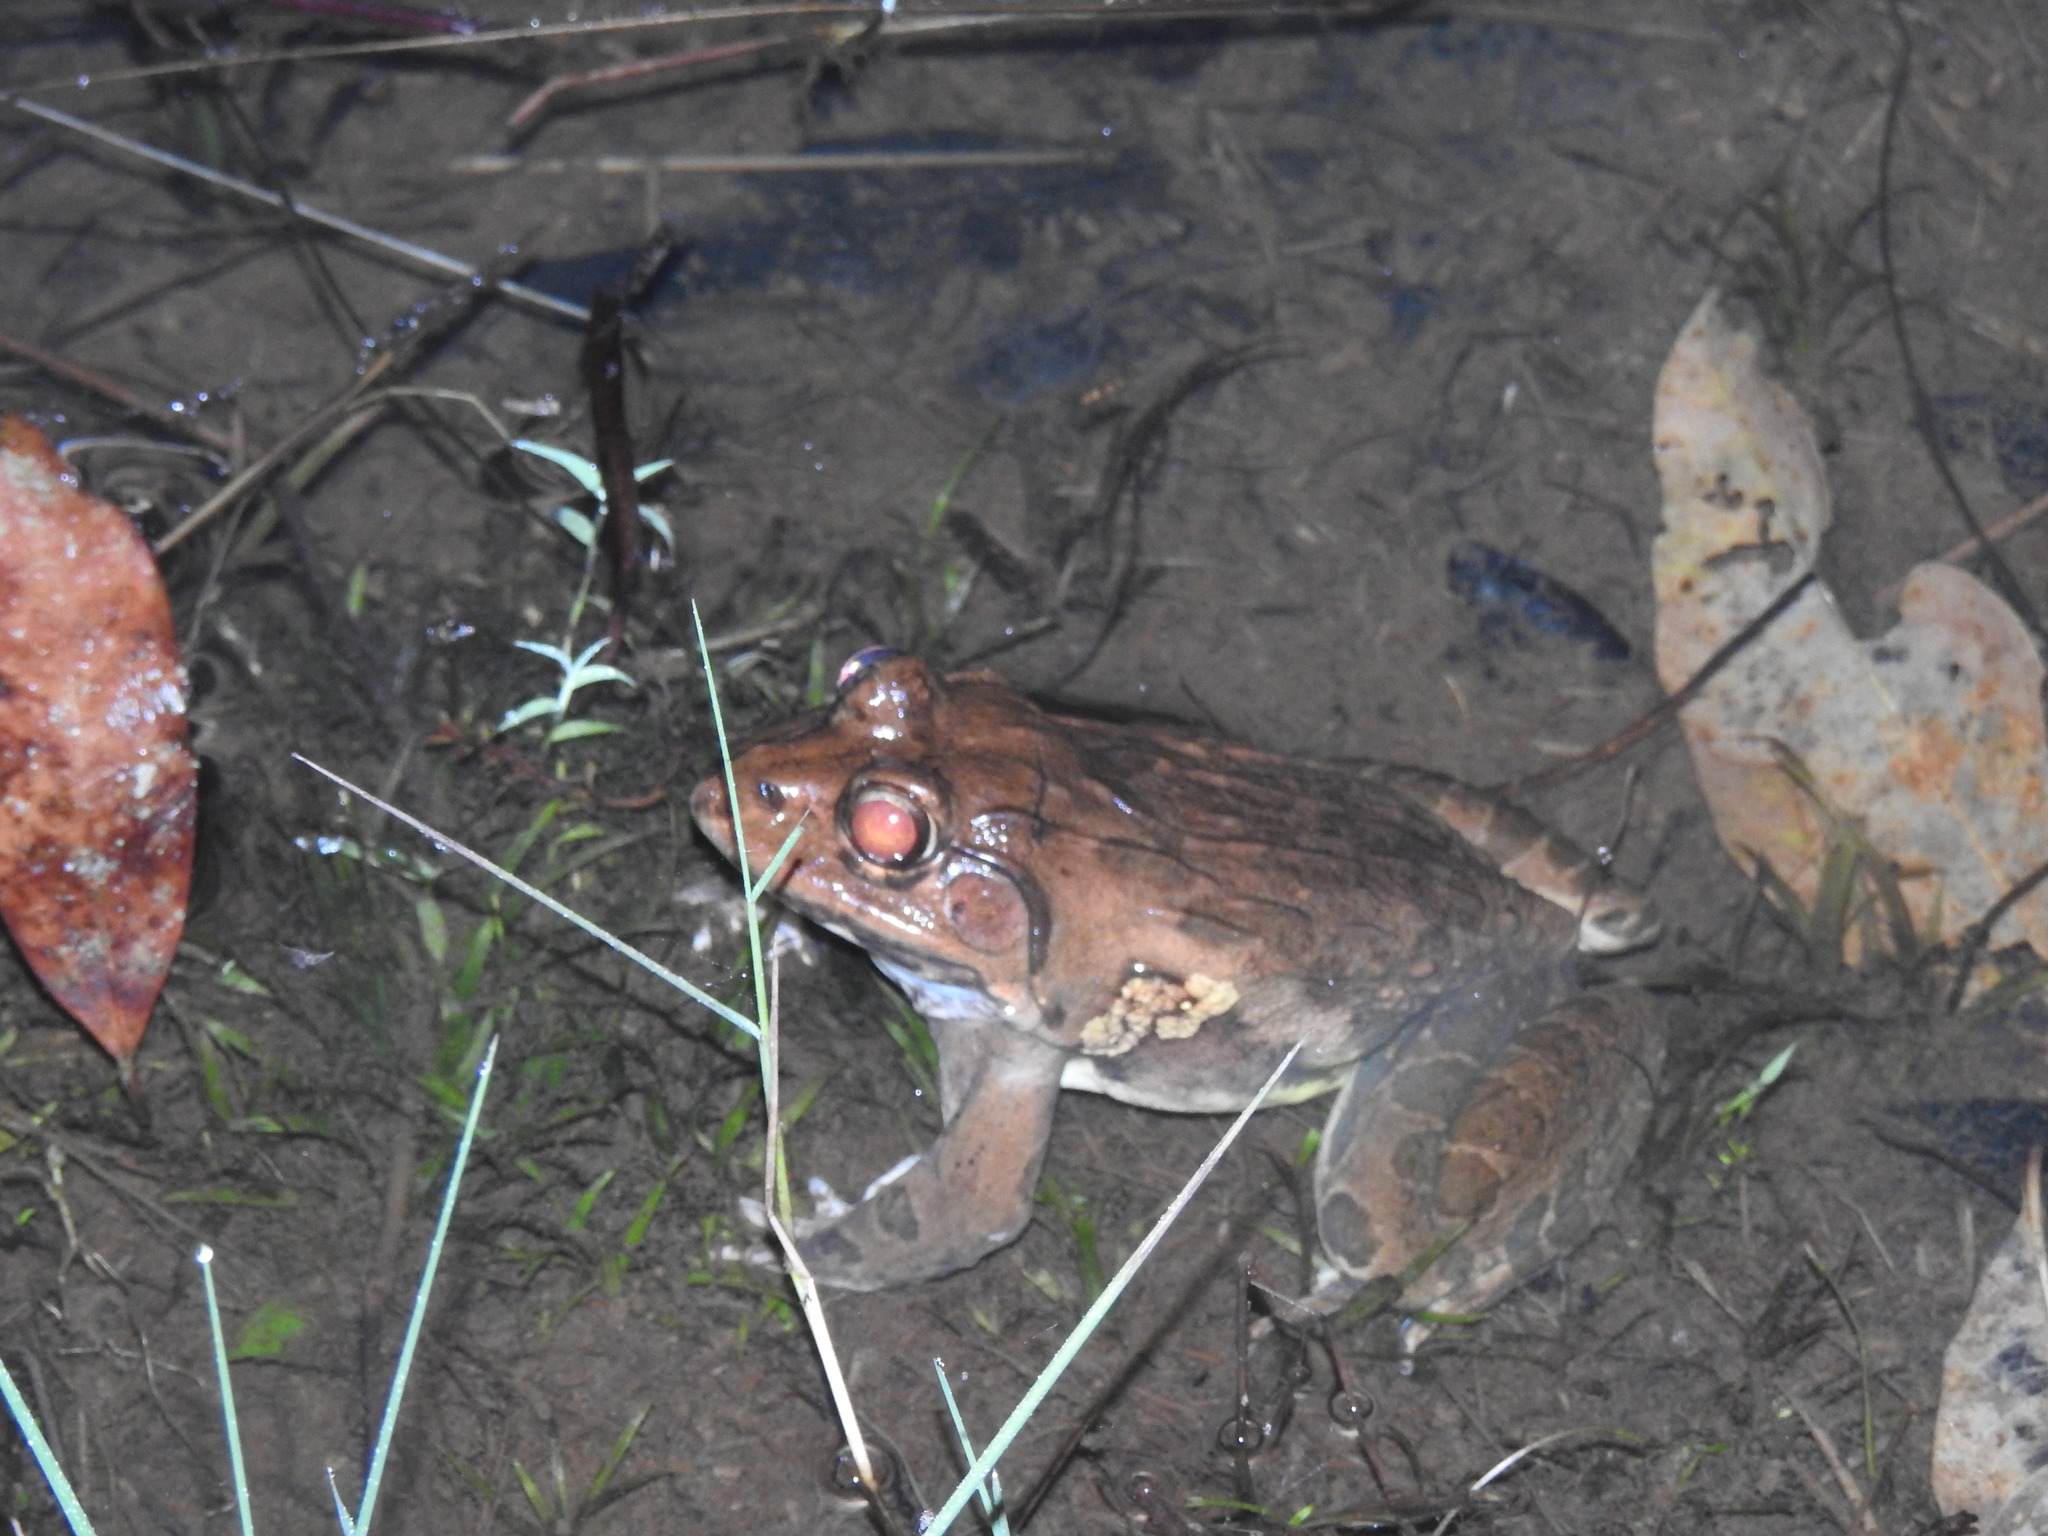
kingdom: Animalia
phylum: Chordata
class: Amphibia
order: Anura
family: Dicroglossidae
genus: Hoplobatrachus
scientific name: Hoplobatrachus tigerinus
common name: Indian bullfrog
